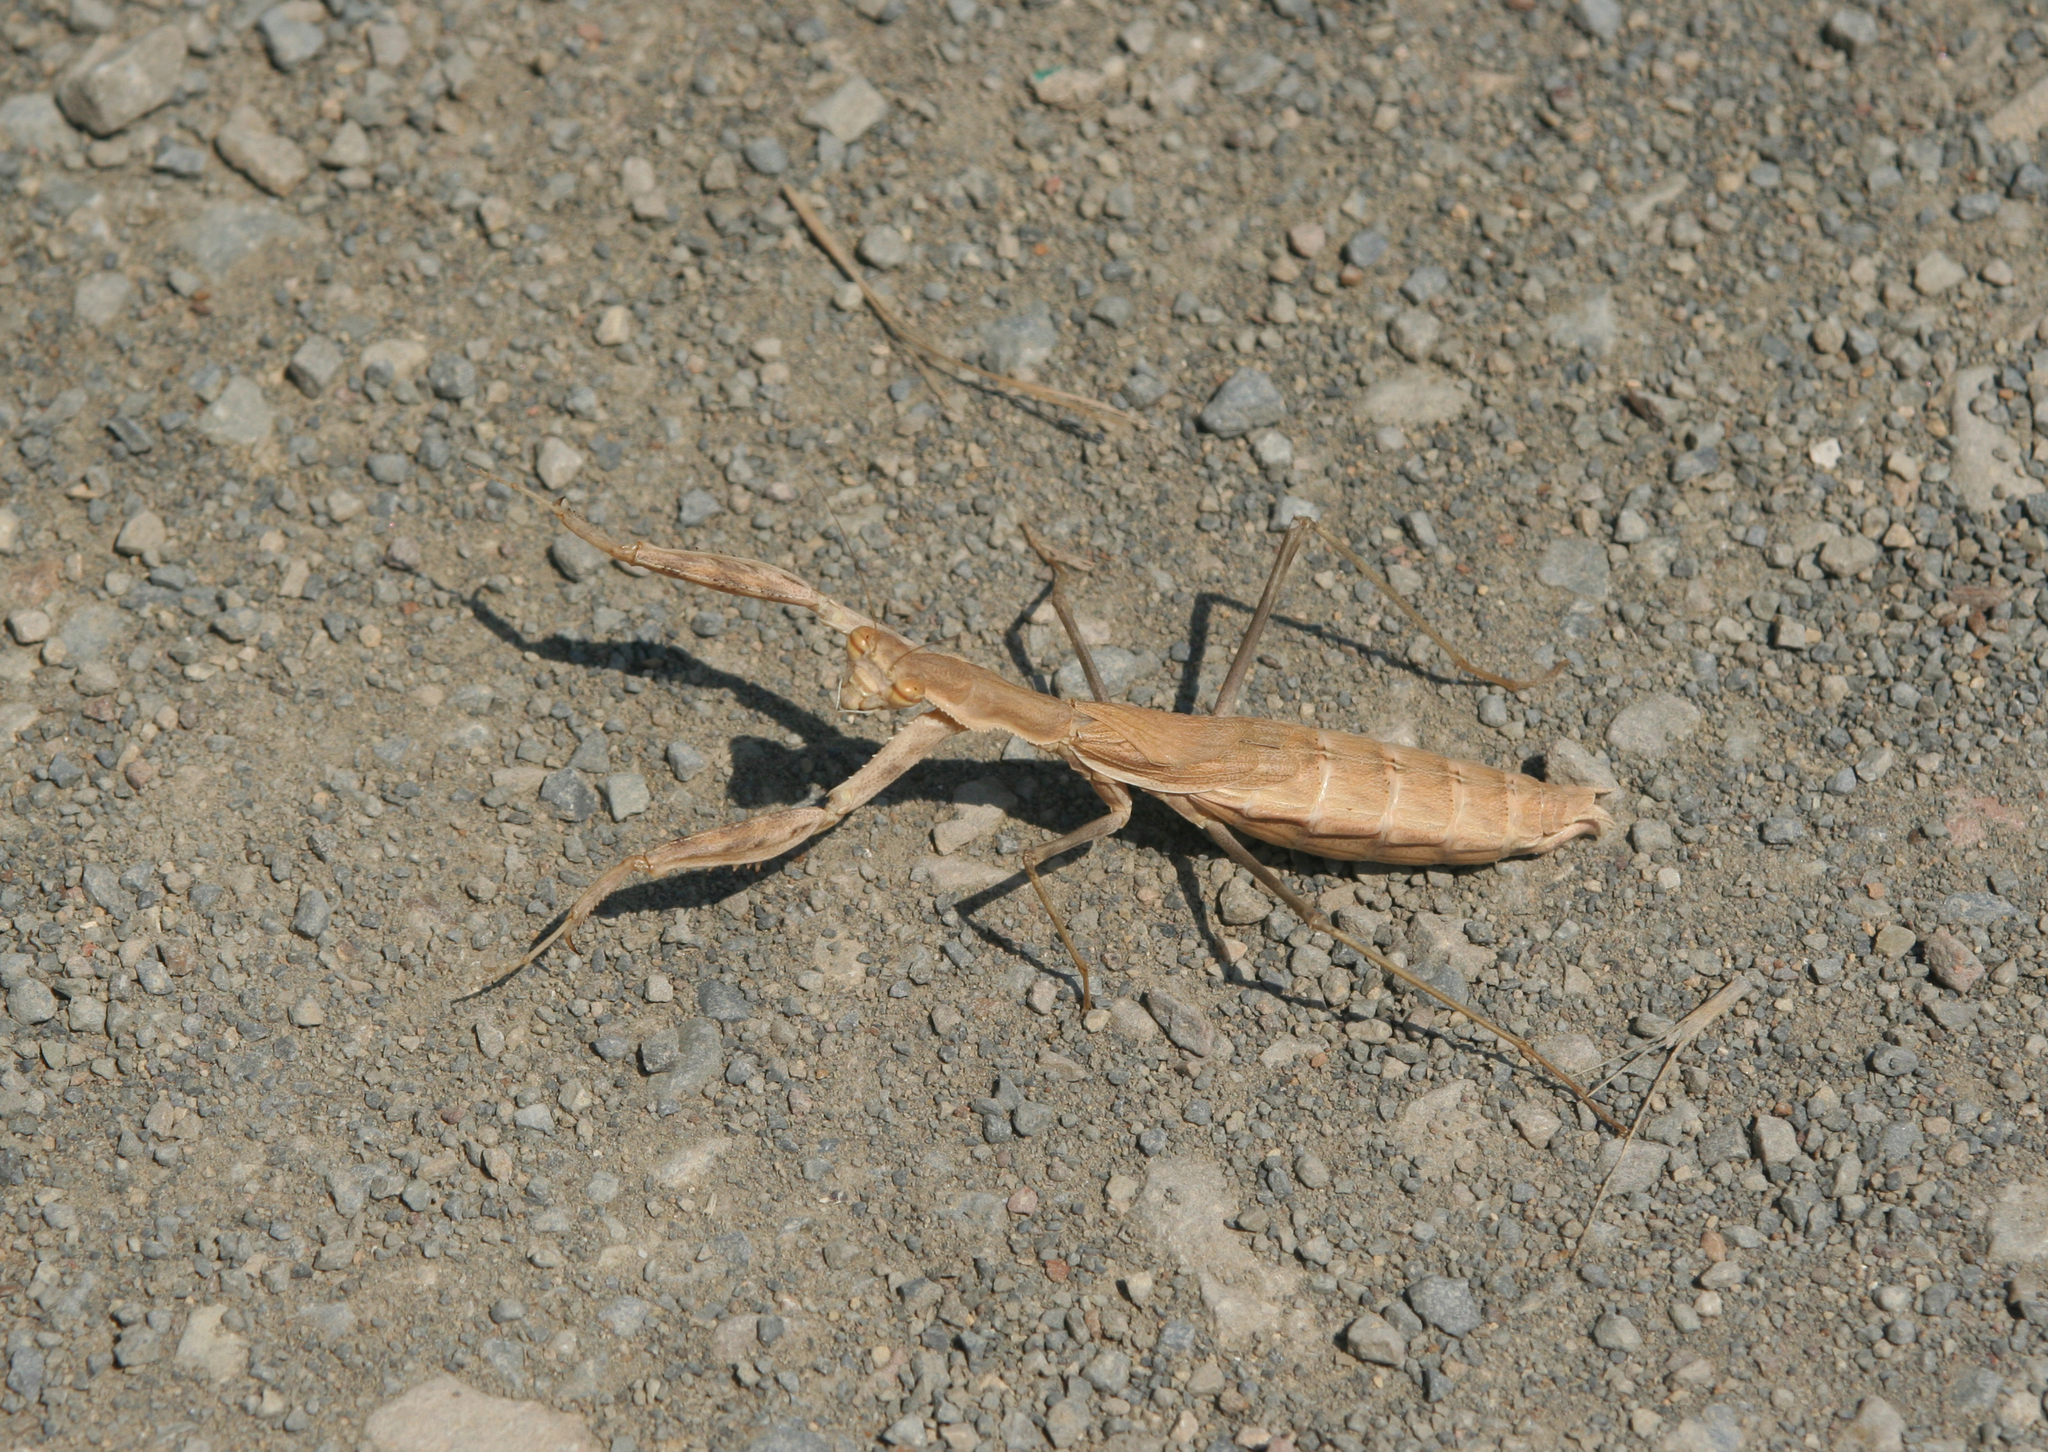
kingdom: Animalia
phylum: Arthropoda
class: Insecta
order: Mantodea
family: Rivetinidae
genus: Bolivaria
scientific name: Bolivaria brachyptera
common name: Bolivar's short winged mantis
